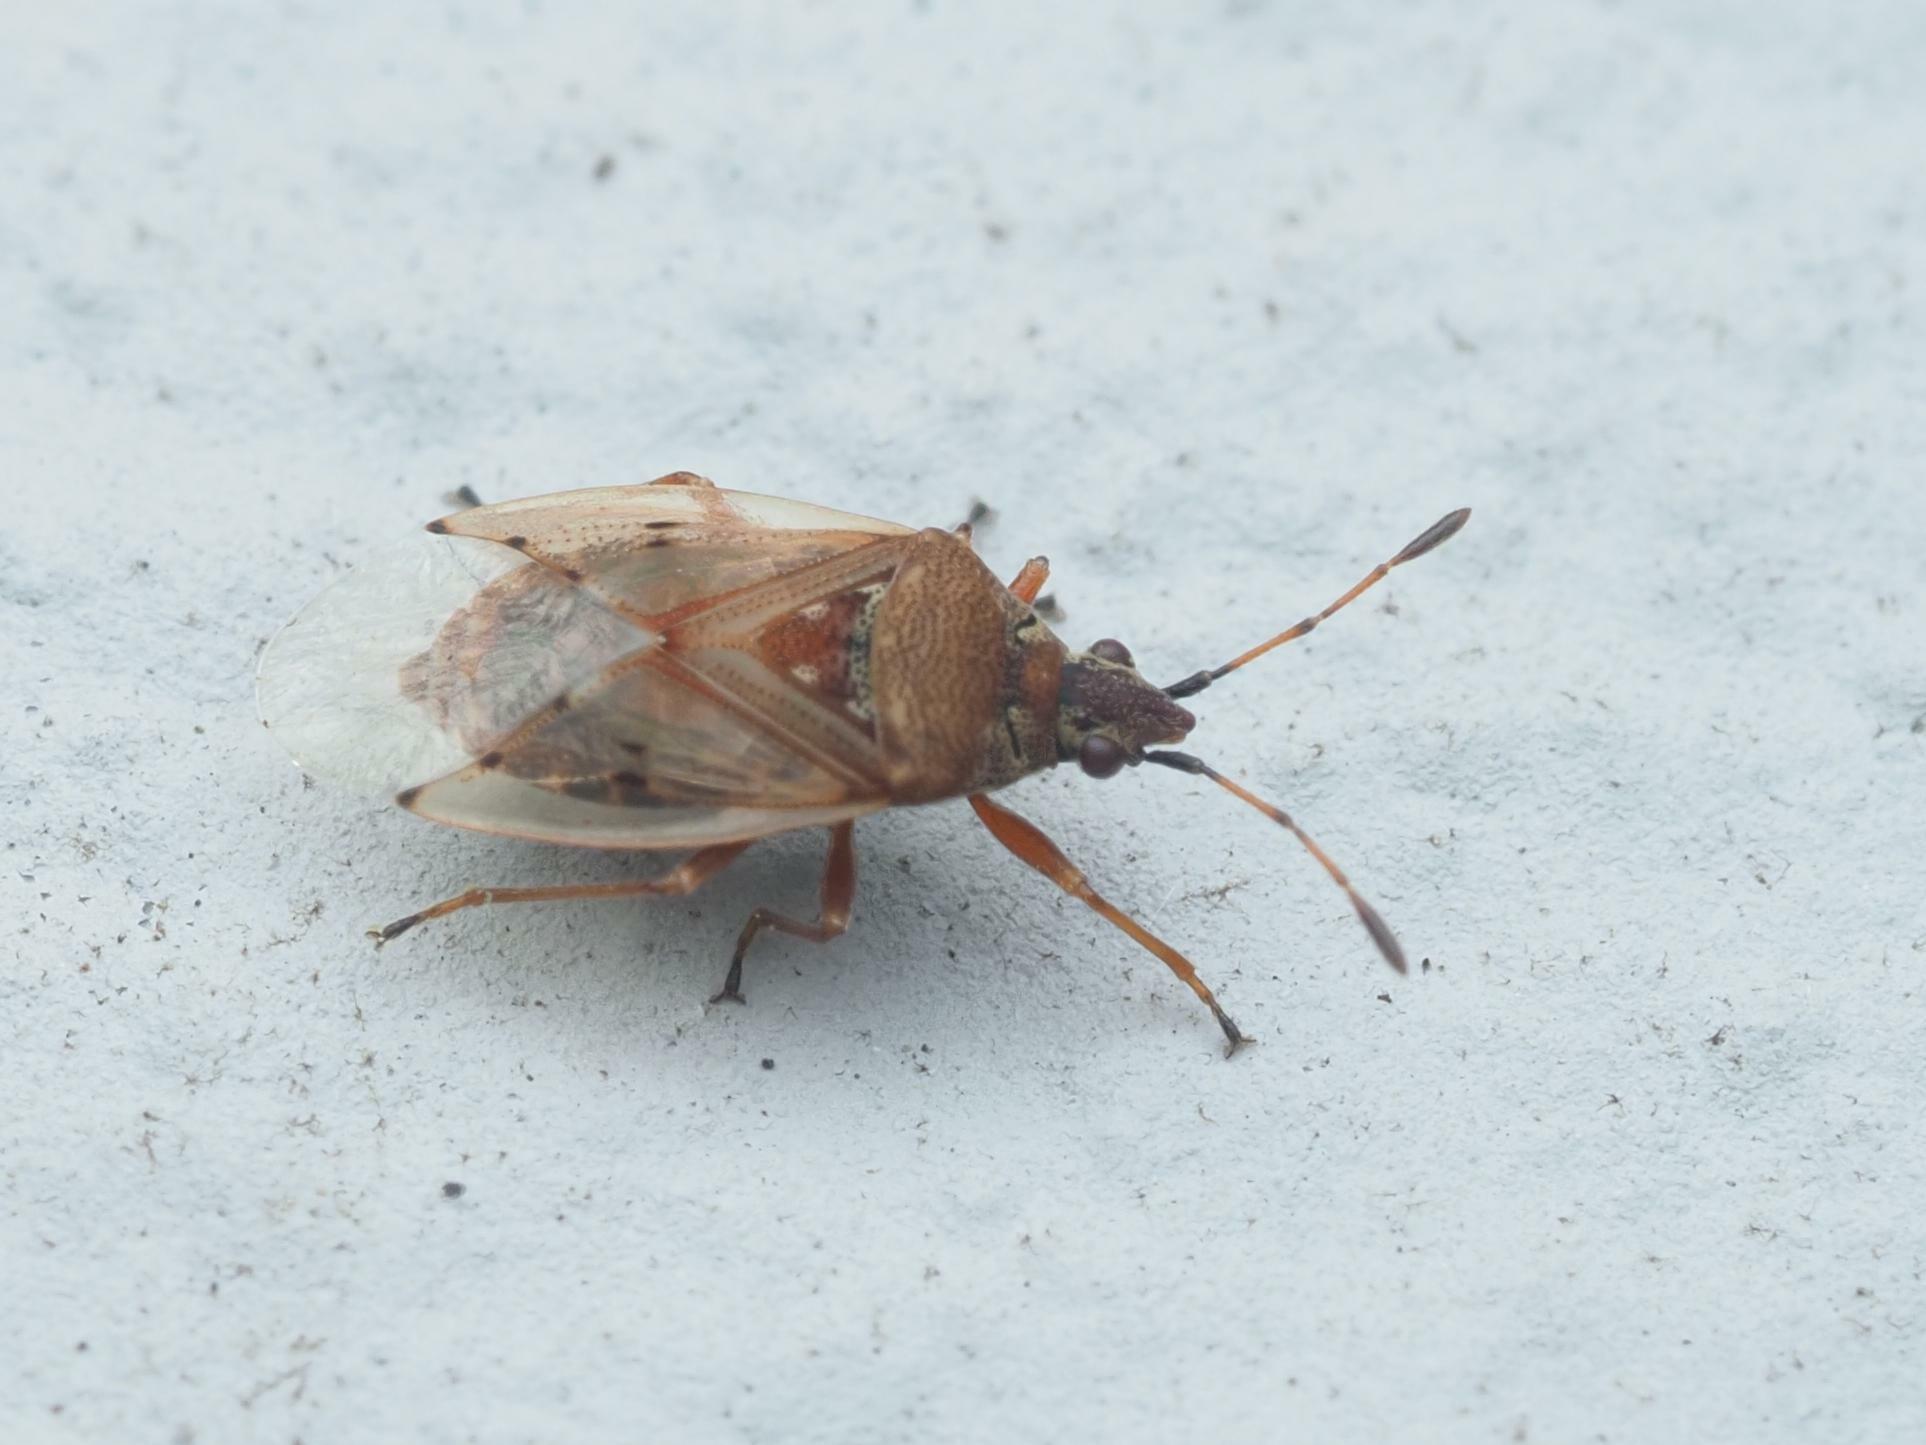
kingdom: Animalia
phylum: Arthropoda
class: Insecta
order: Hemiptera
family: Lygaeidae
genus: Kleidocerys
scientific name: Kleidocerys resedae
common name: Birch catkin bug
